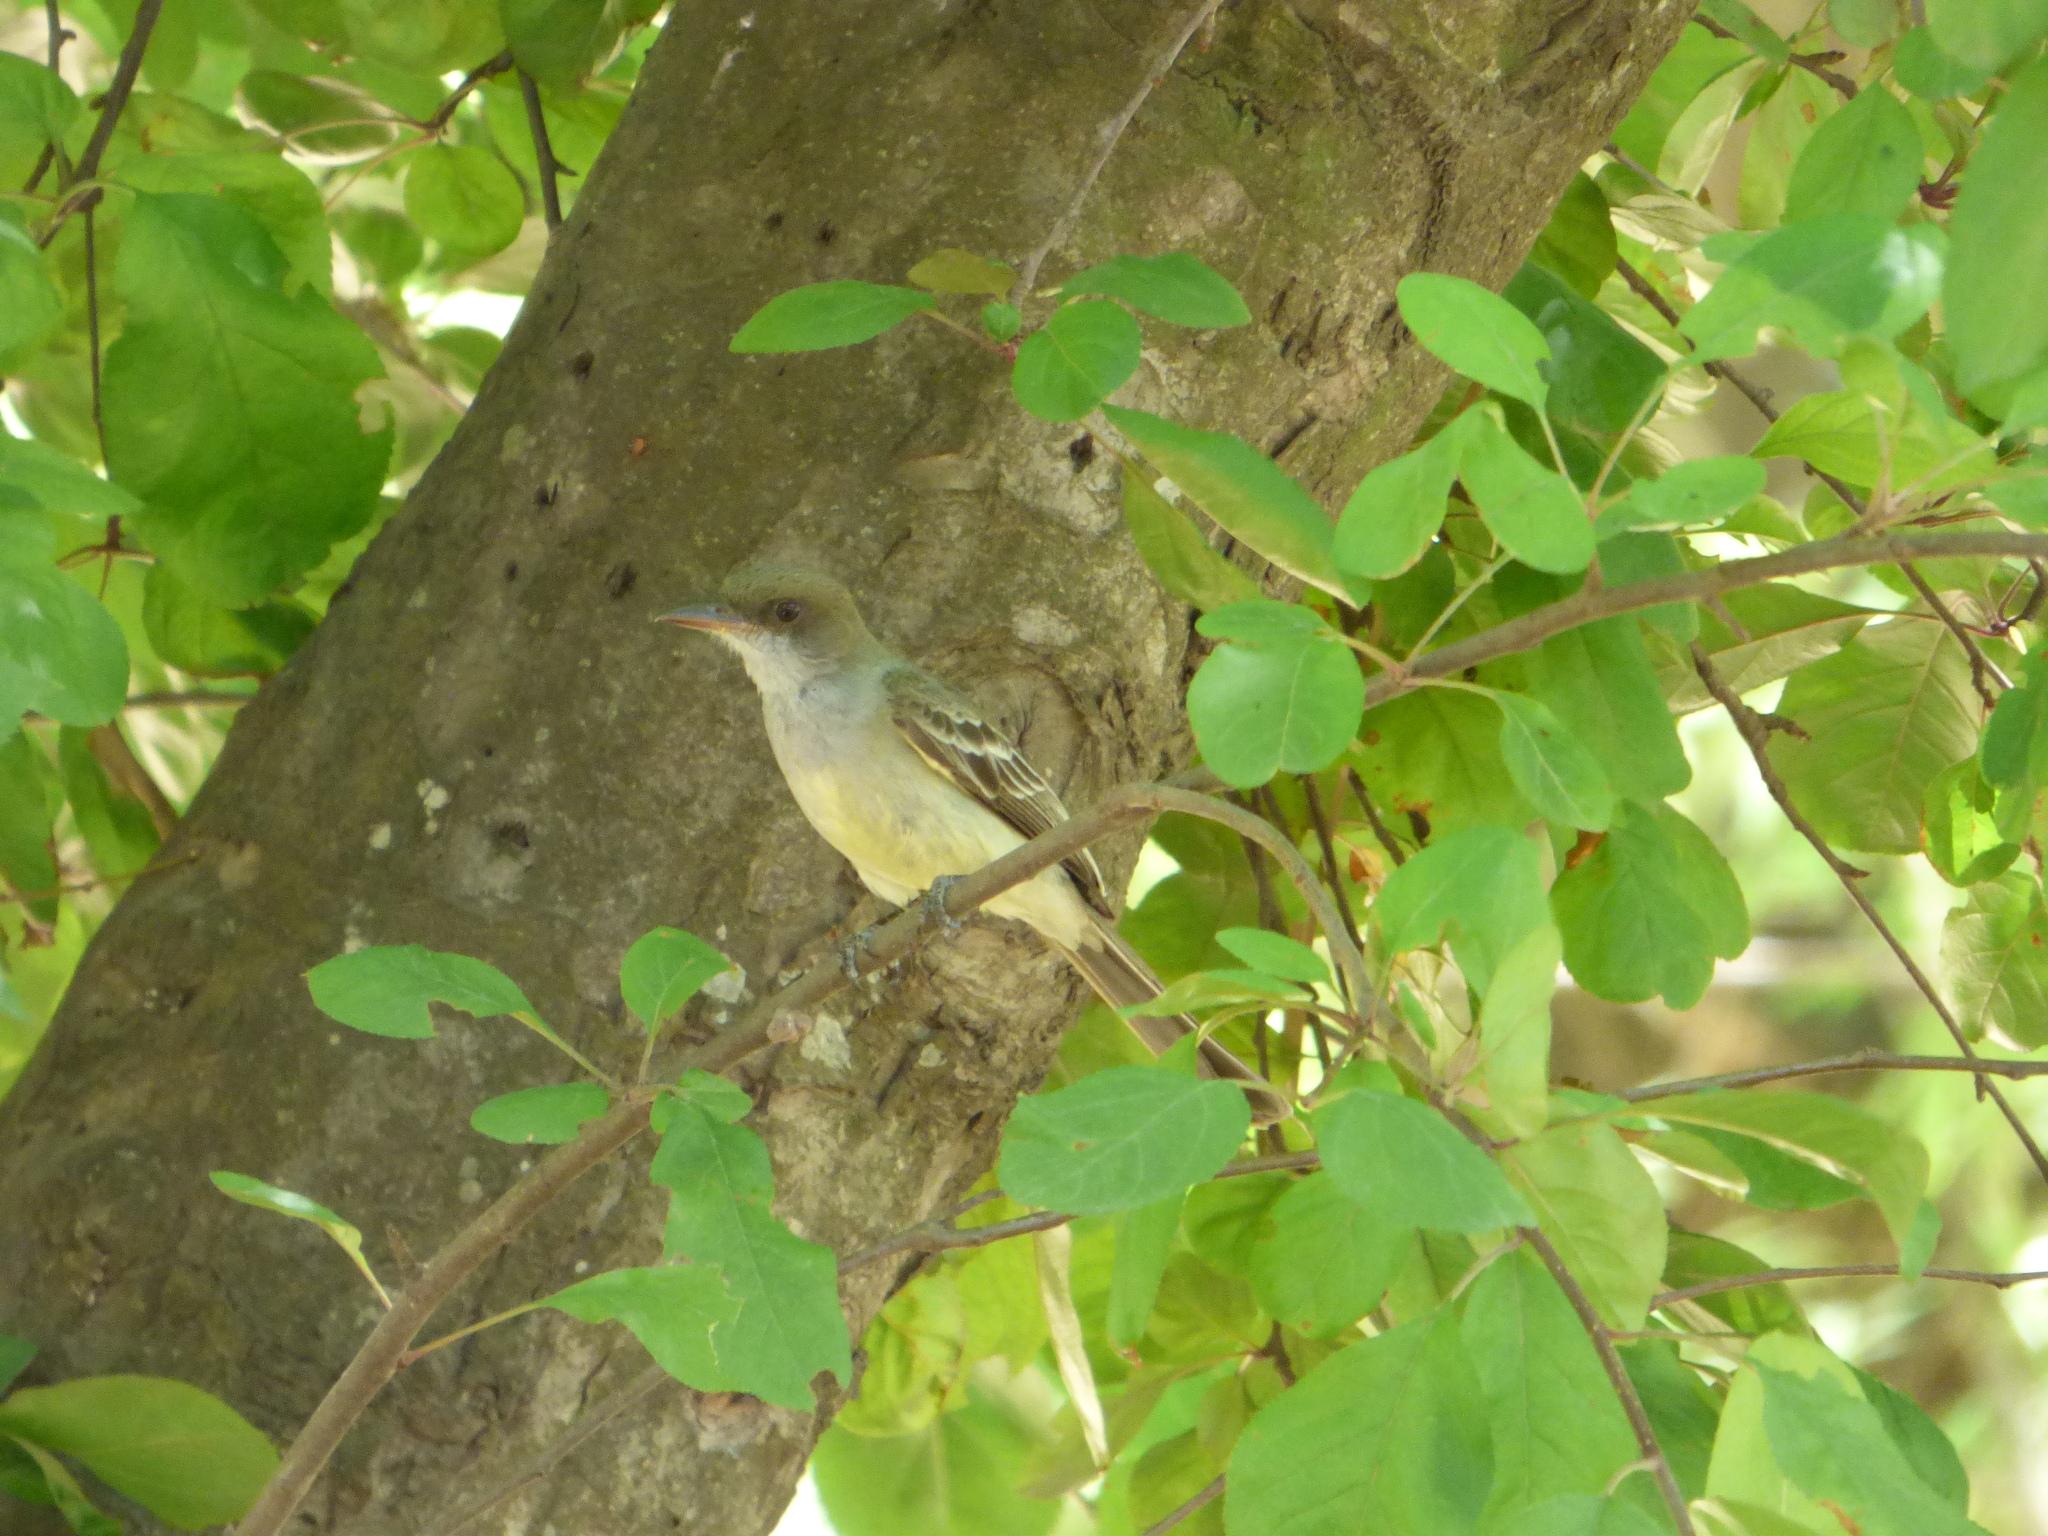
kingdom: Animalia
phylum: Chordata
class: Aves
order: Passeriformes
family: Tyrannidae
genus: Myiarchus
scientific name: Myiarchus swainsoni
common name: Swainson's flycatcher
